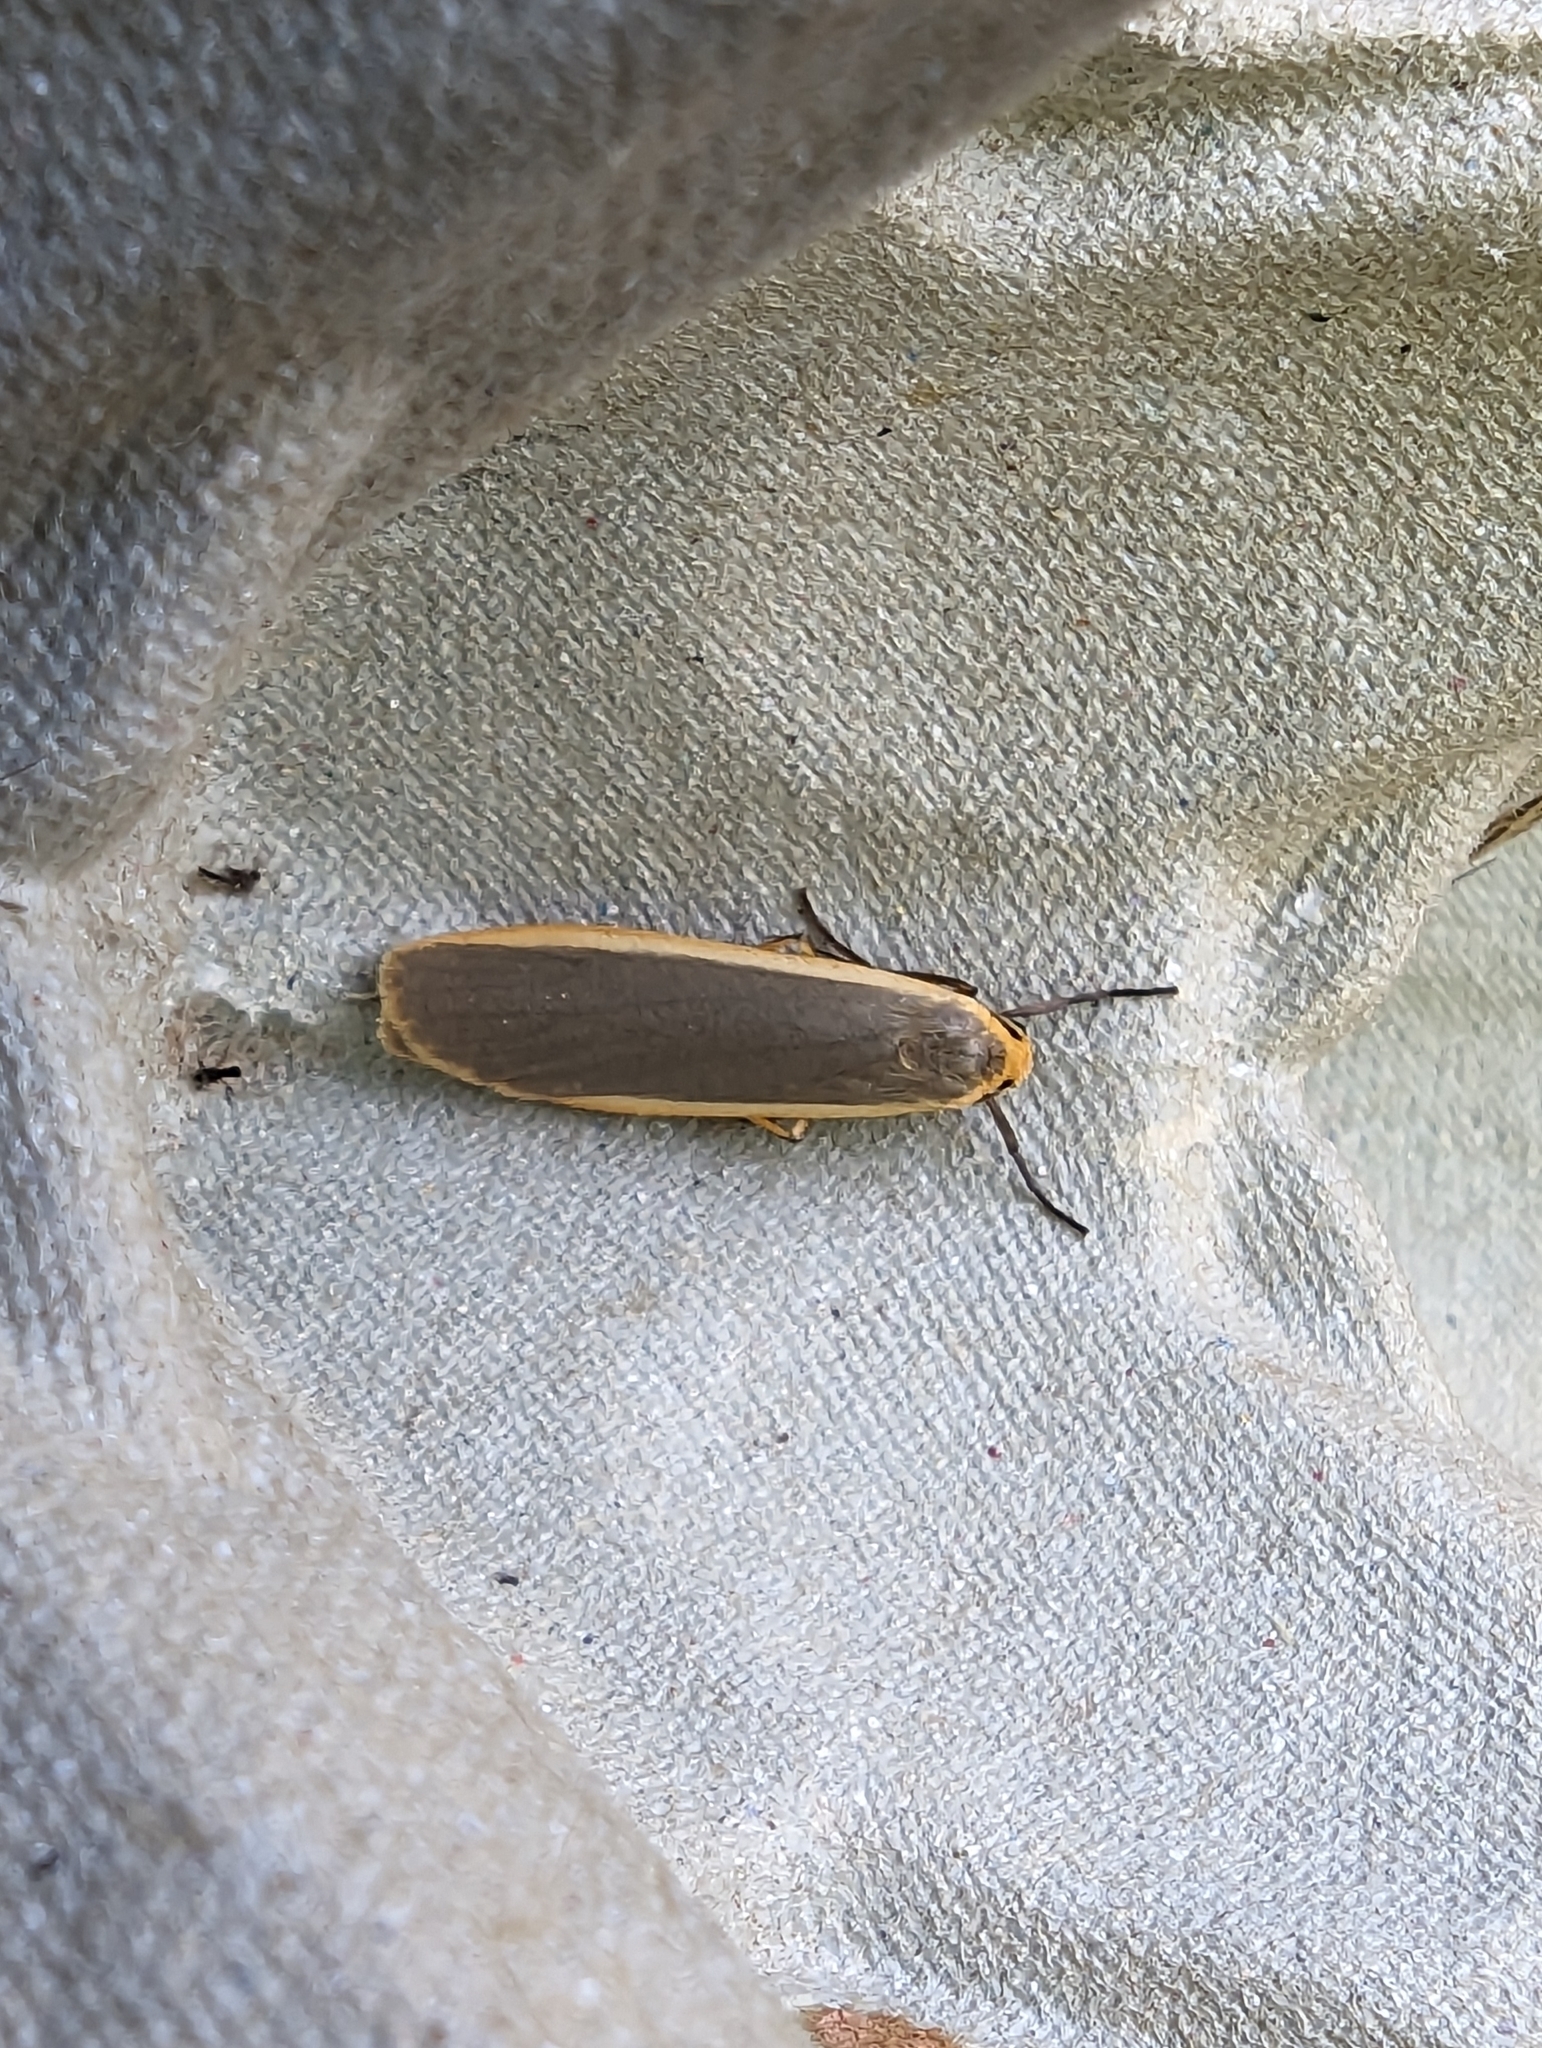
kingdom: Animalia
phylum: Arthropoda
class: Insecta
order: Lepidoptera
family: Erebidae
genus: Nyea
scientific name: Nyea lurideola
